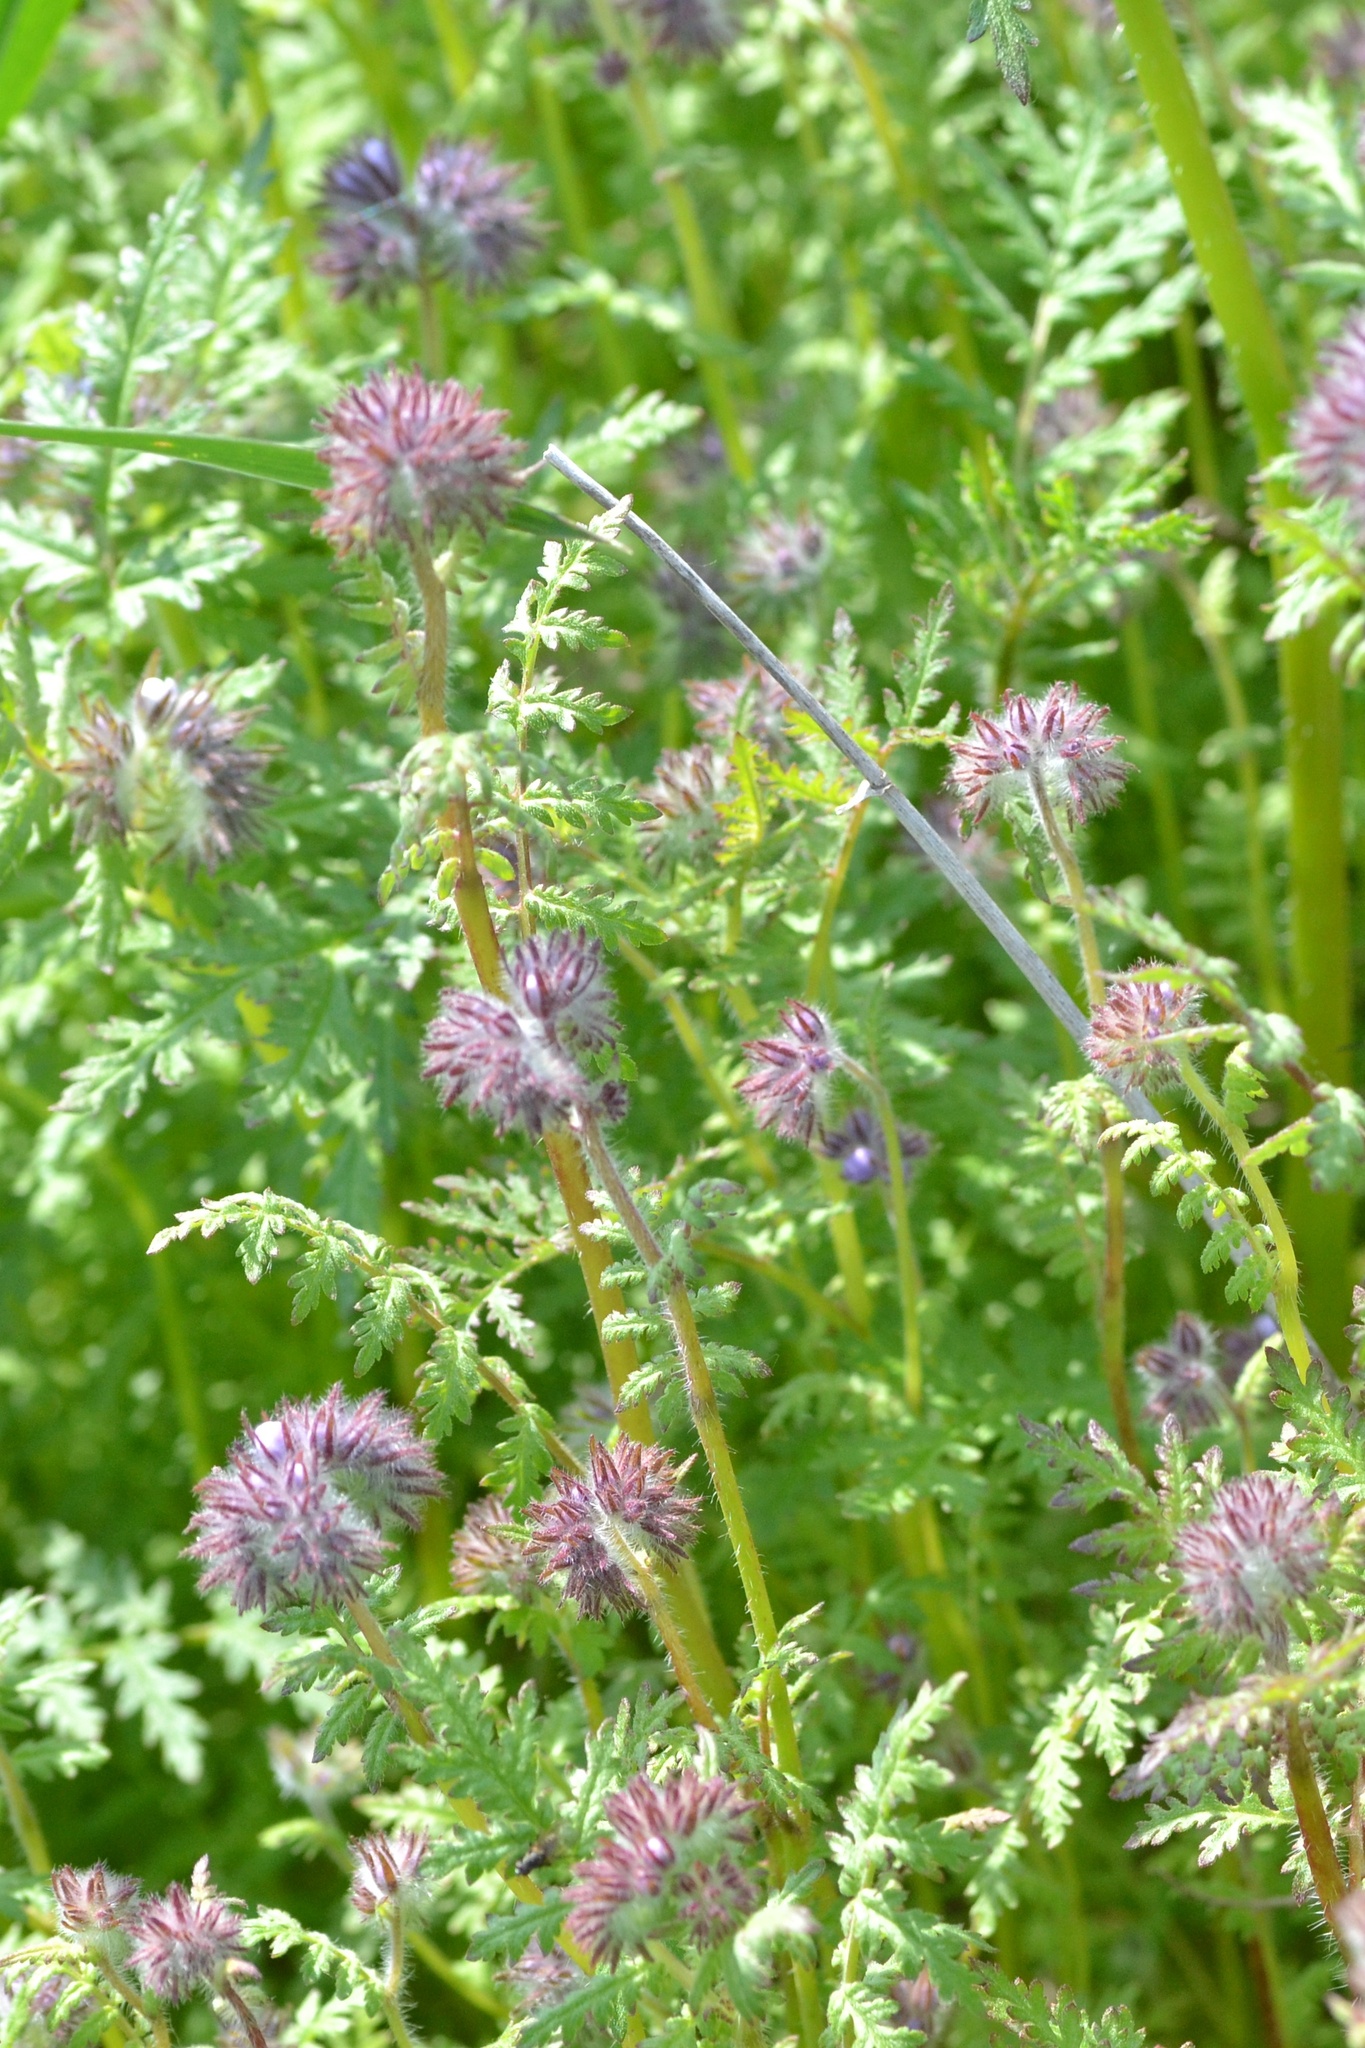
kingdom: Plantae
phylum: Tracheophyta
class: Magnoliopsida
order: Boraginales
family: Hydrophyllaceae
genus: Phacelia
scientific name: Phacelia tanacetifolia
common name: Phacelia
